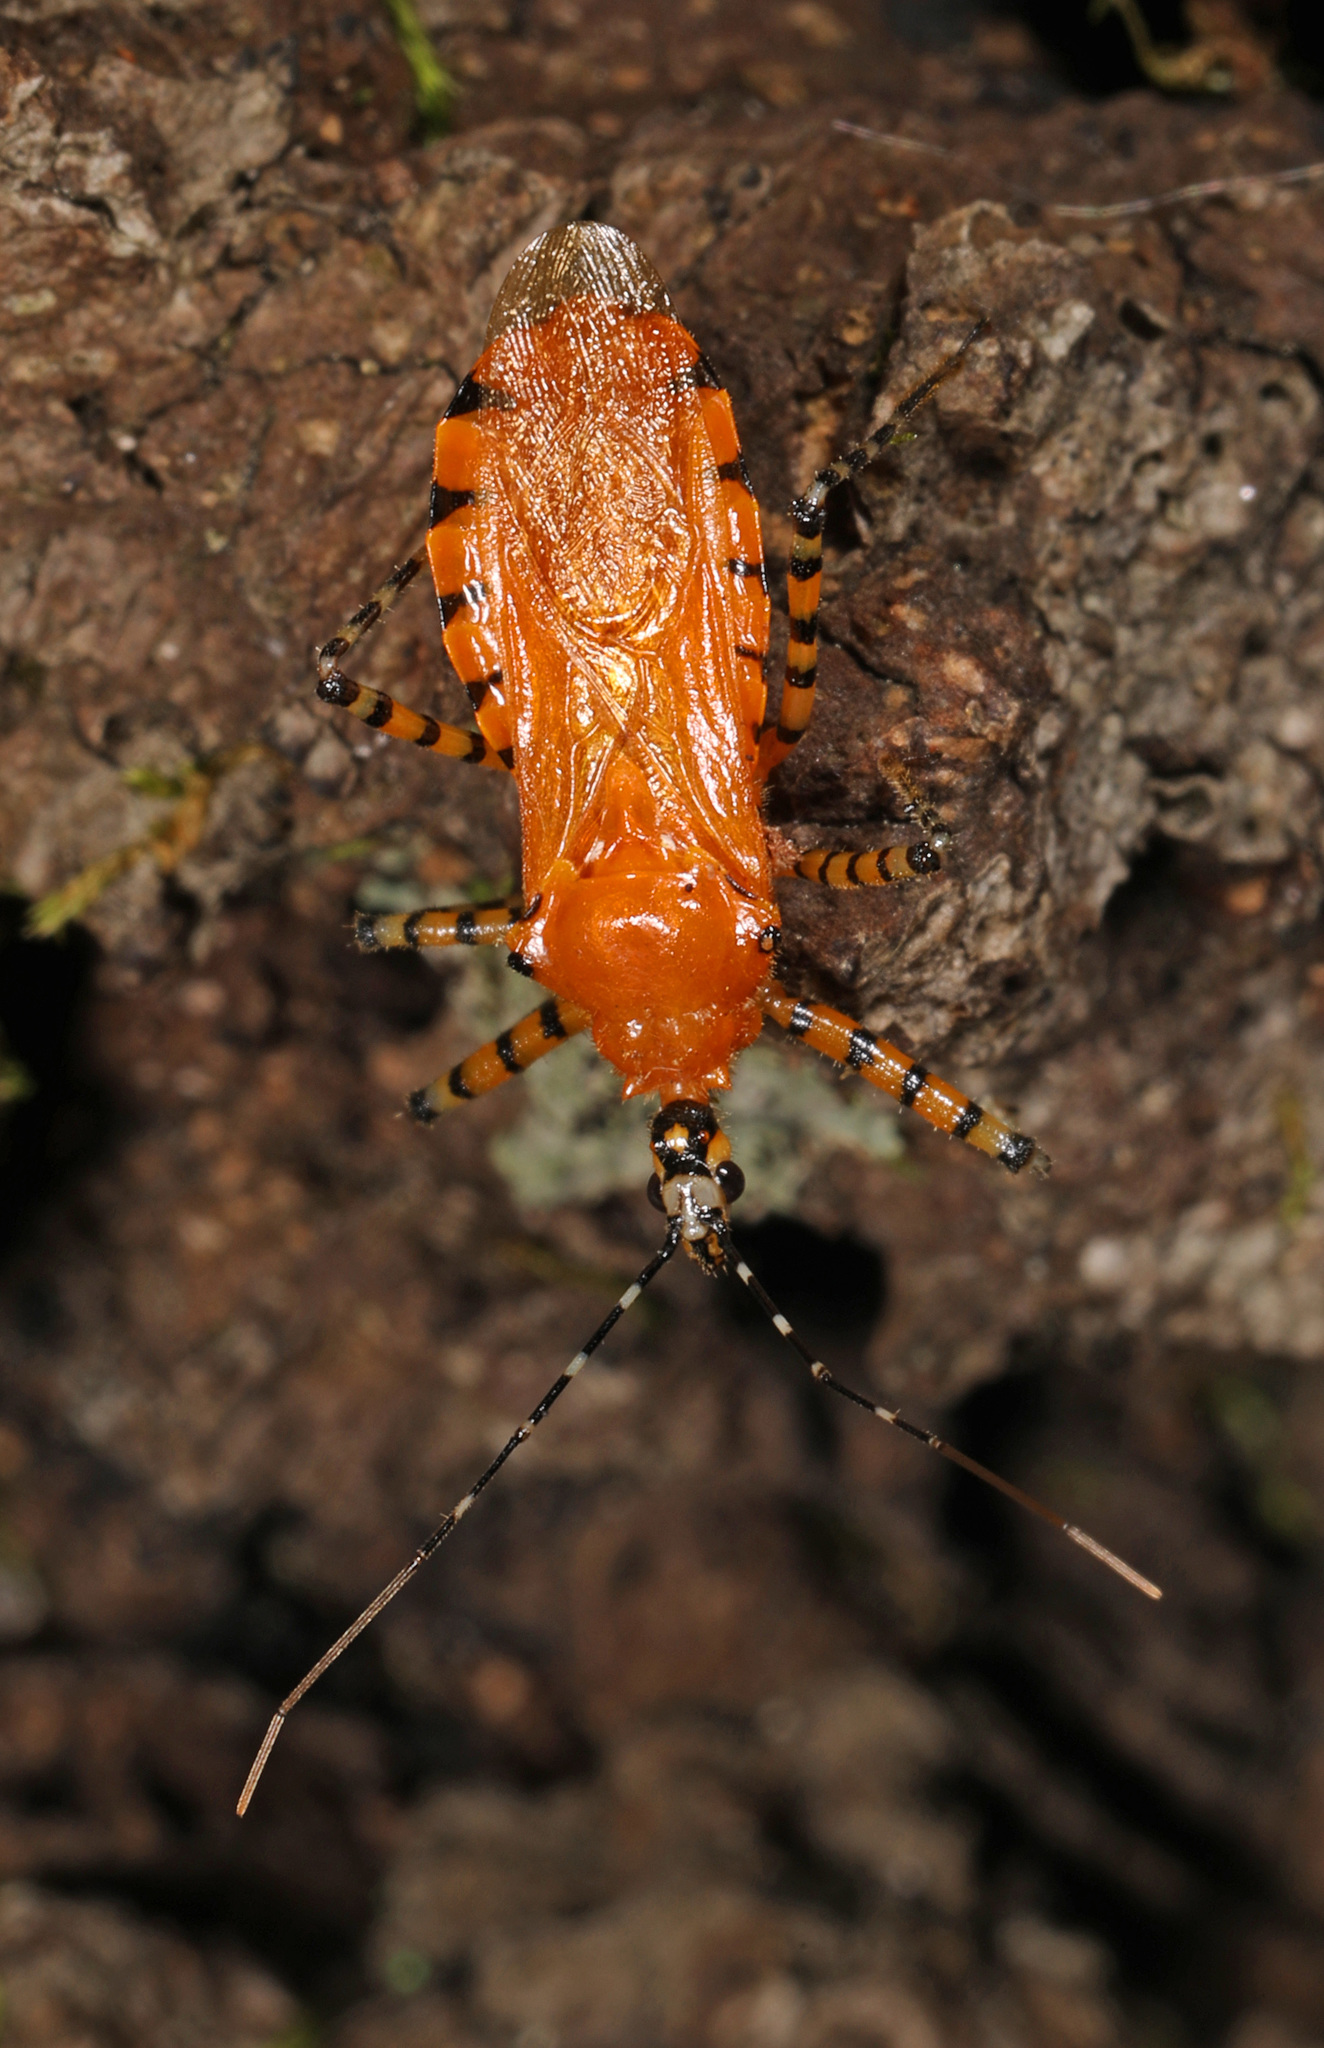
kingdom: Animalia
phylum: Arthropoda
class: Insecta
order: Hemiptera
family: Reduviidae
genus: Pselliopus
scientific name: Pselliopus barberi
